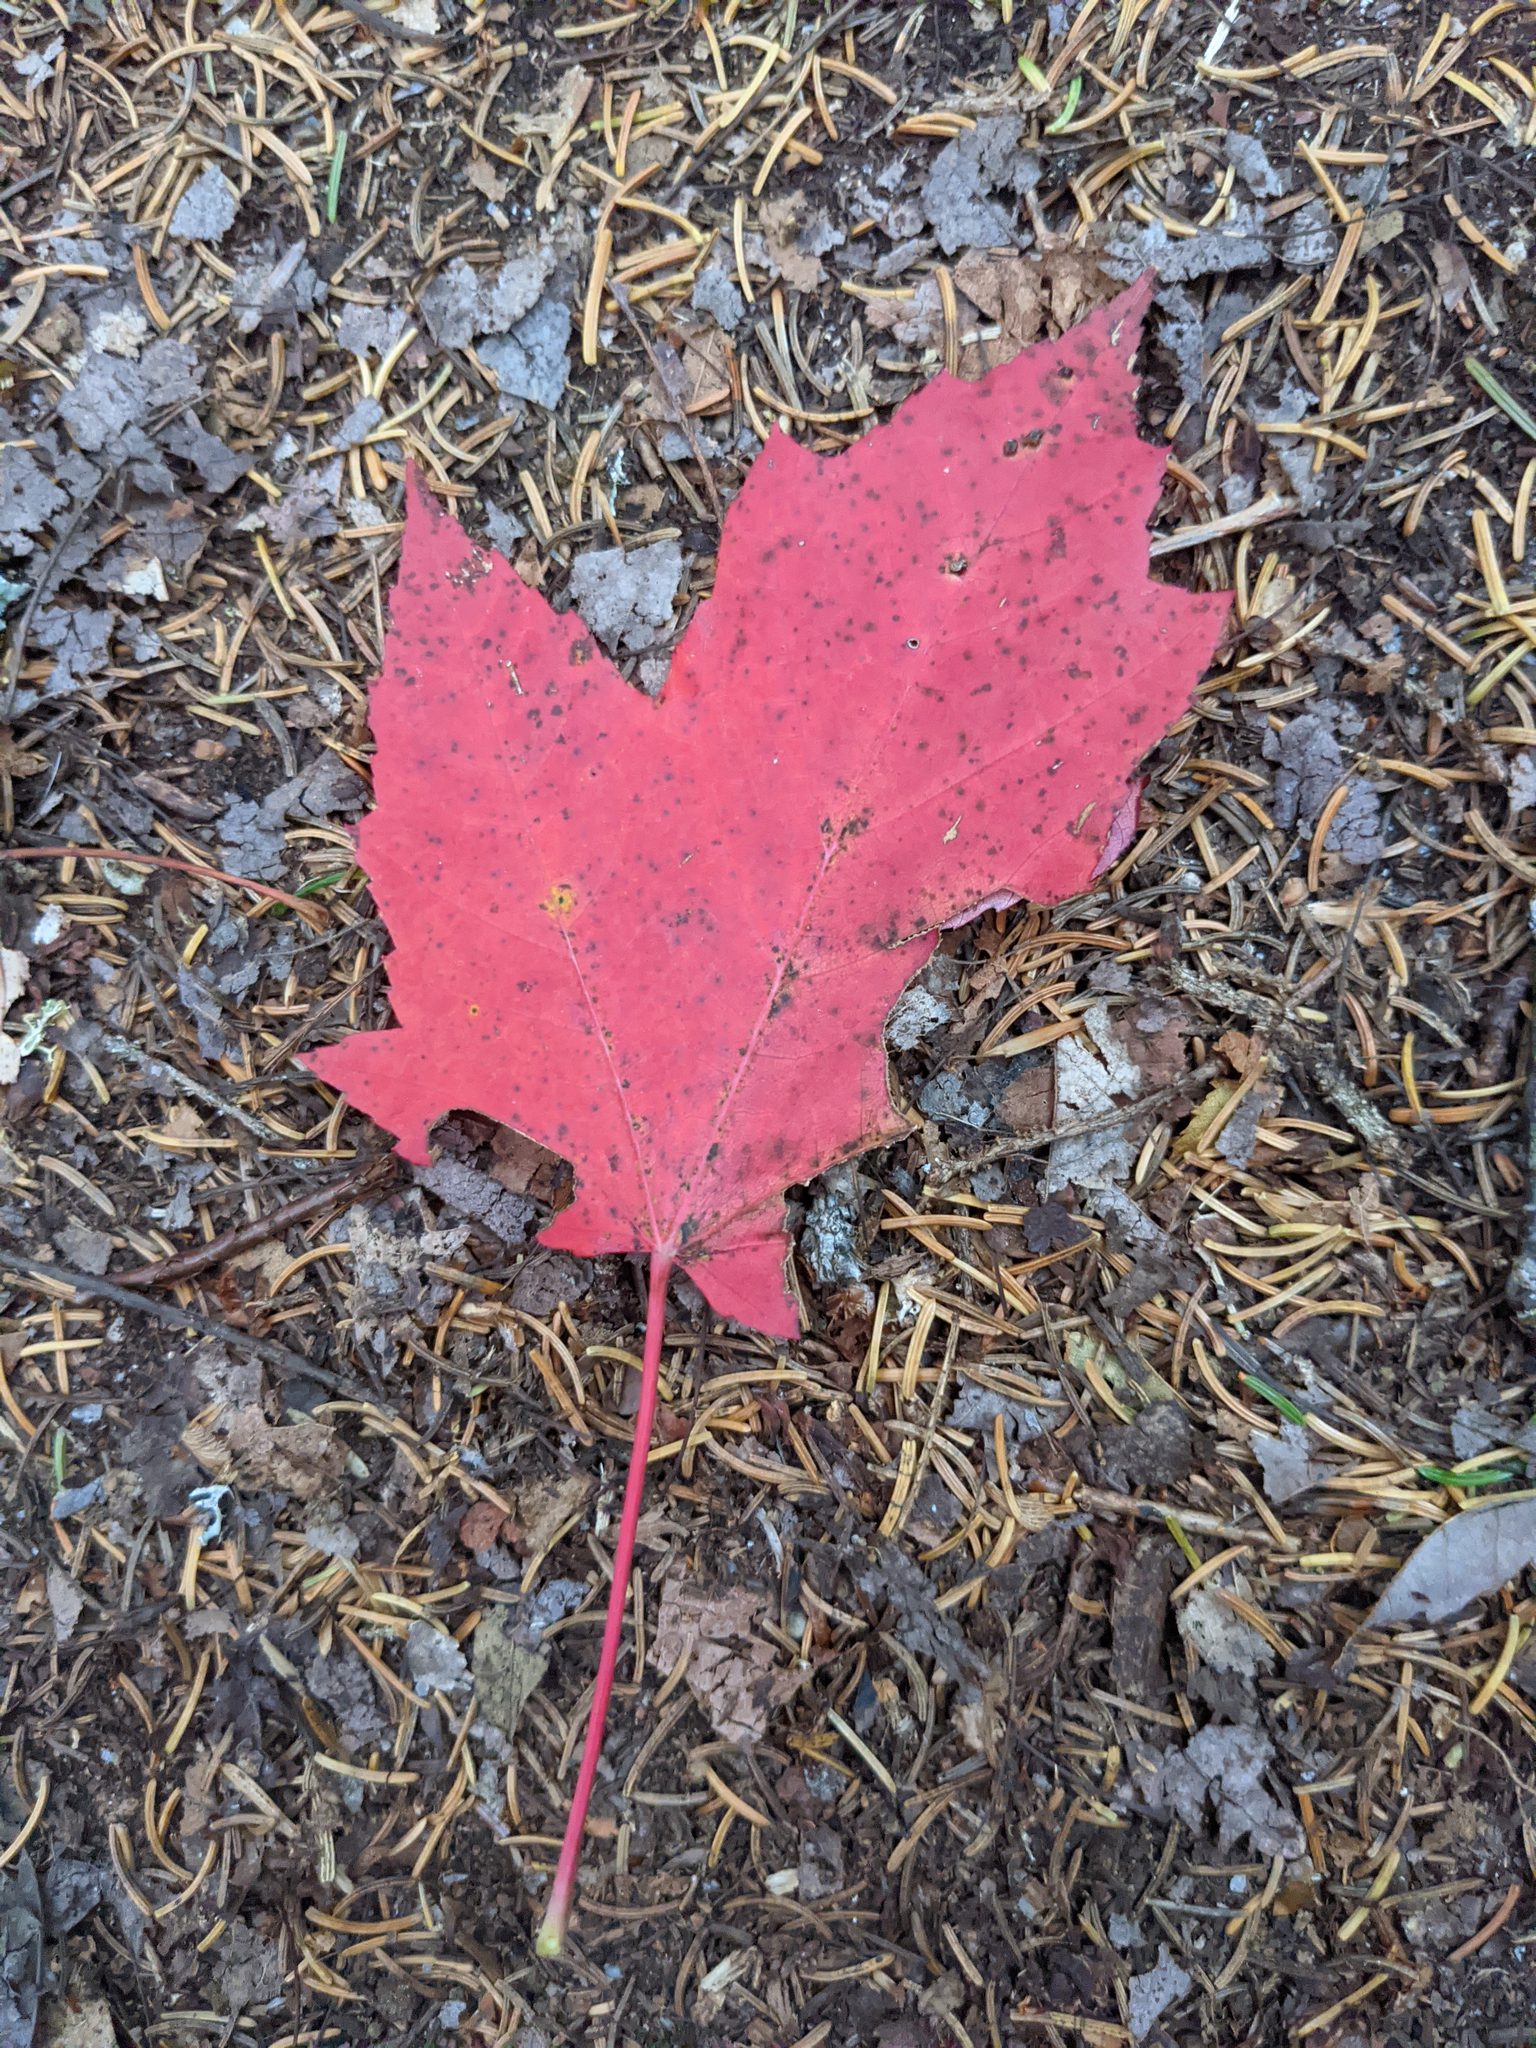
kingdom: Plantae
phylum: Tracheophyta
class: Magnoliopsida
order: Sapindales
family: Sapindaceae
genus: Acer
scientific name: Acer rubrum
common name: Red maple
